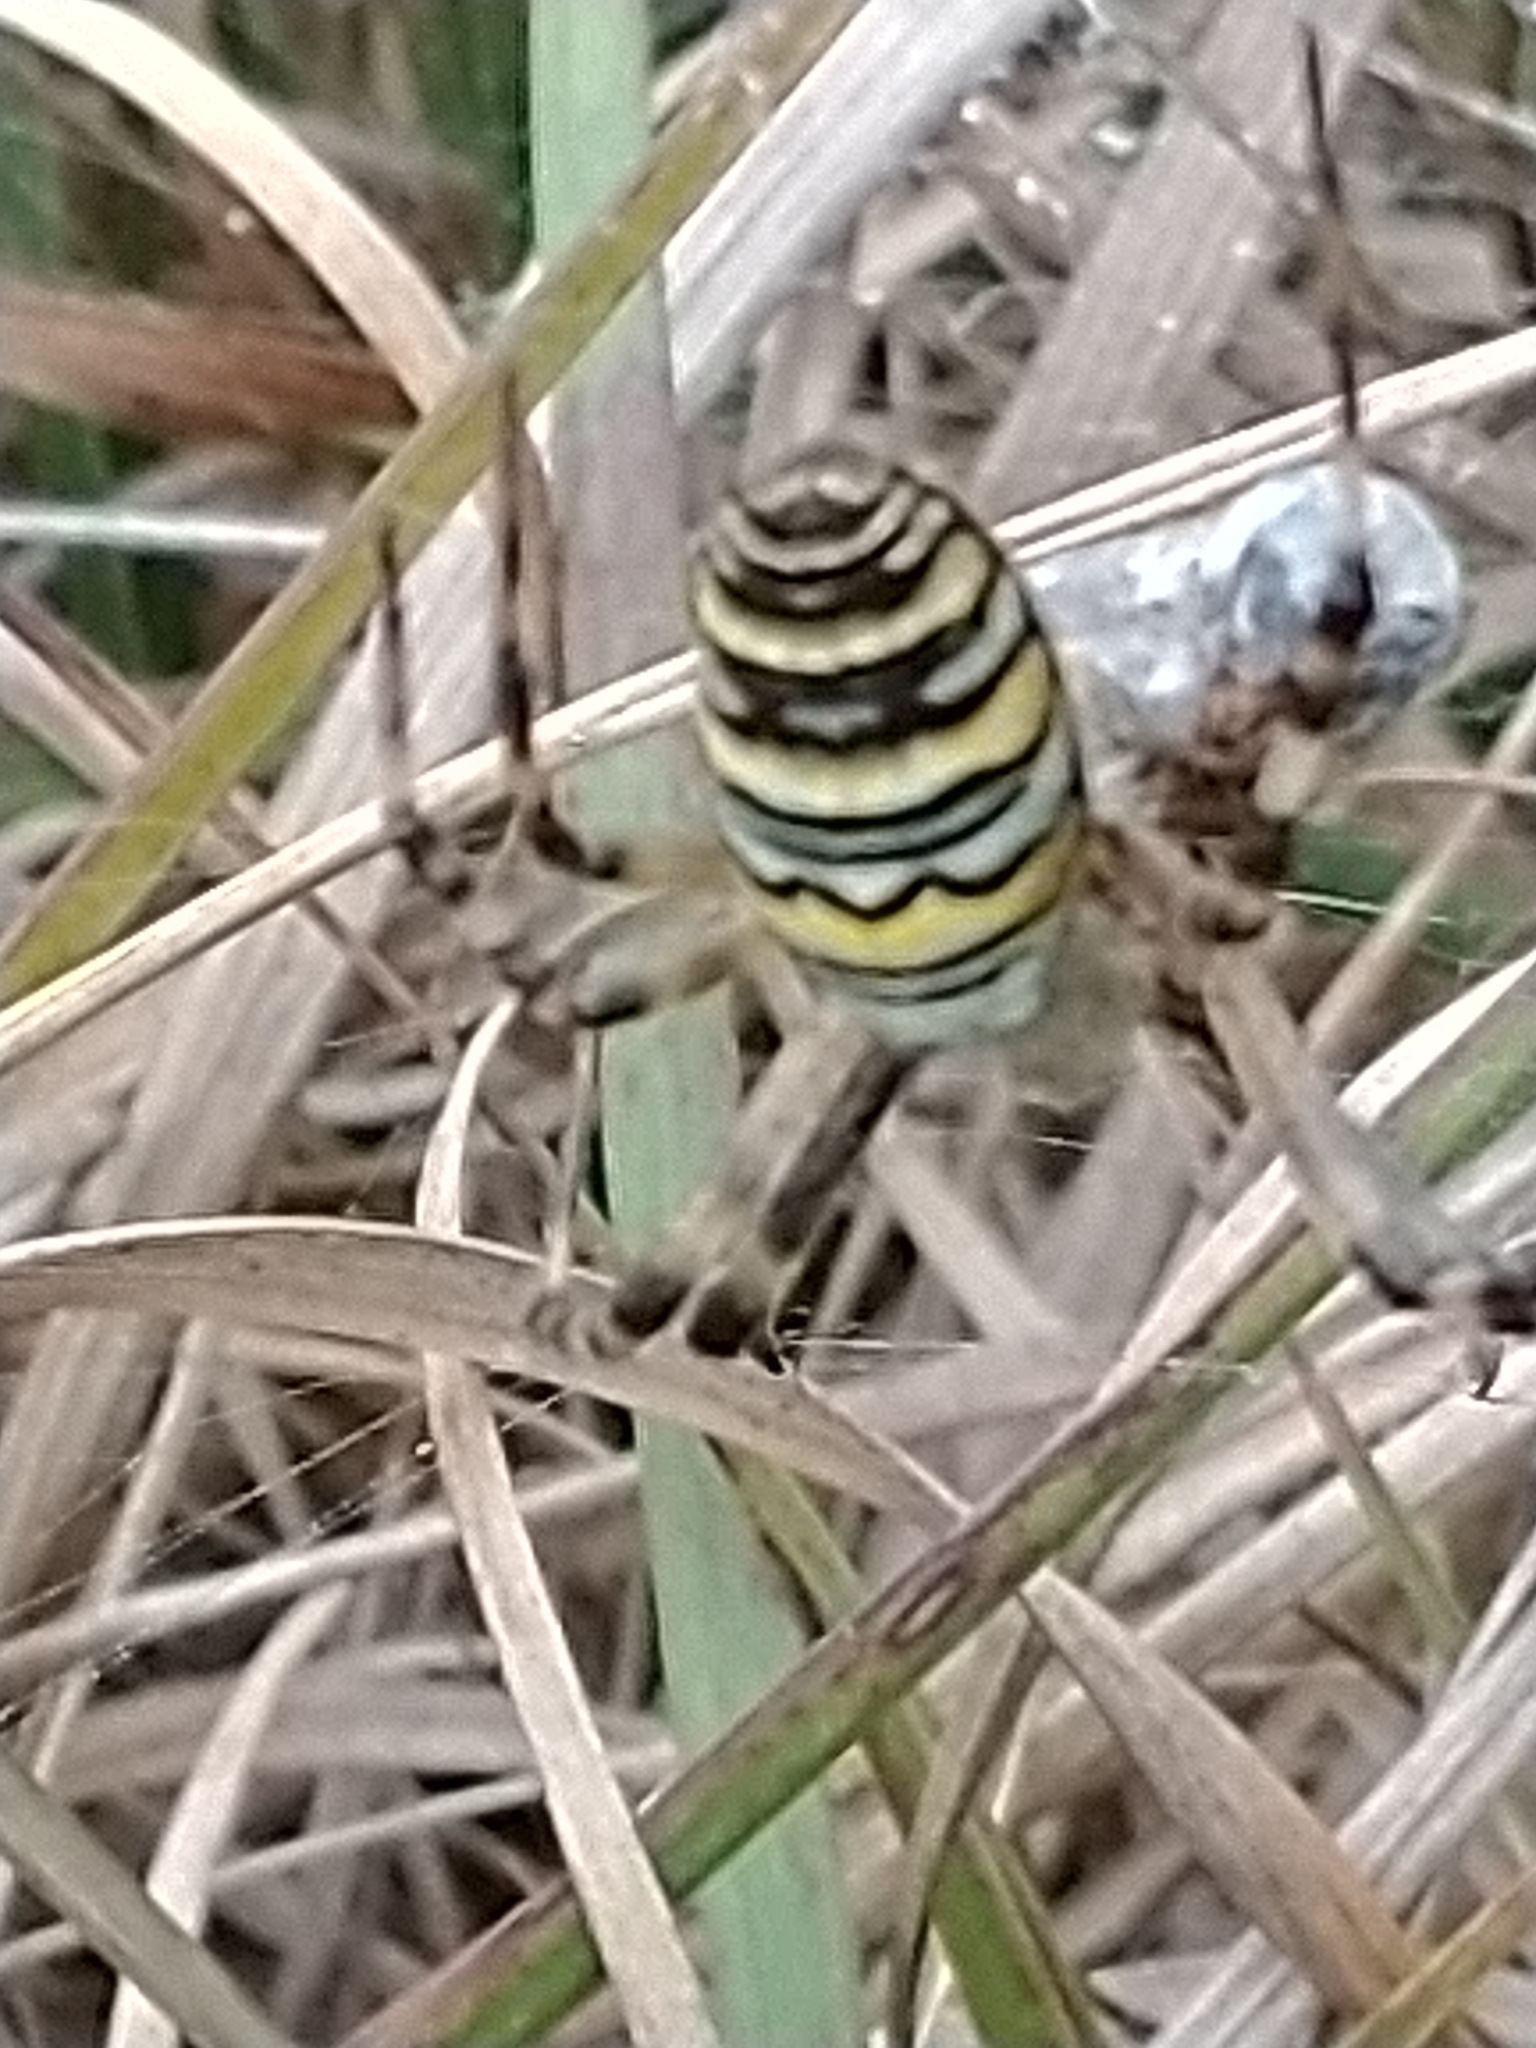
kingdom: Animalia
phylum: Arthropoda
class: Arachnida
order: Araneae
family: Araneidae
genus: Argiope
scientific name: Argiope bruennichi
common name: Wasp spider
